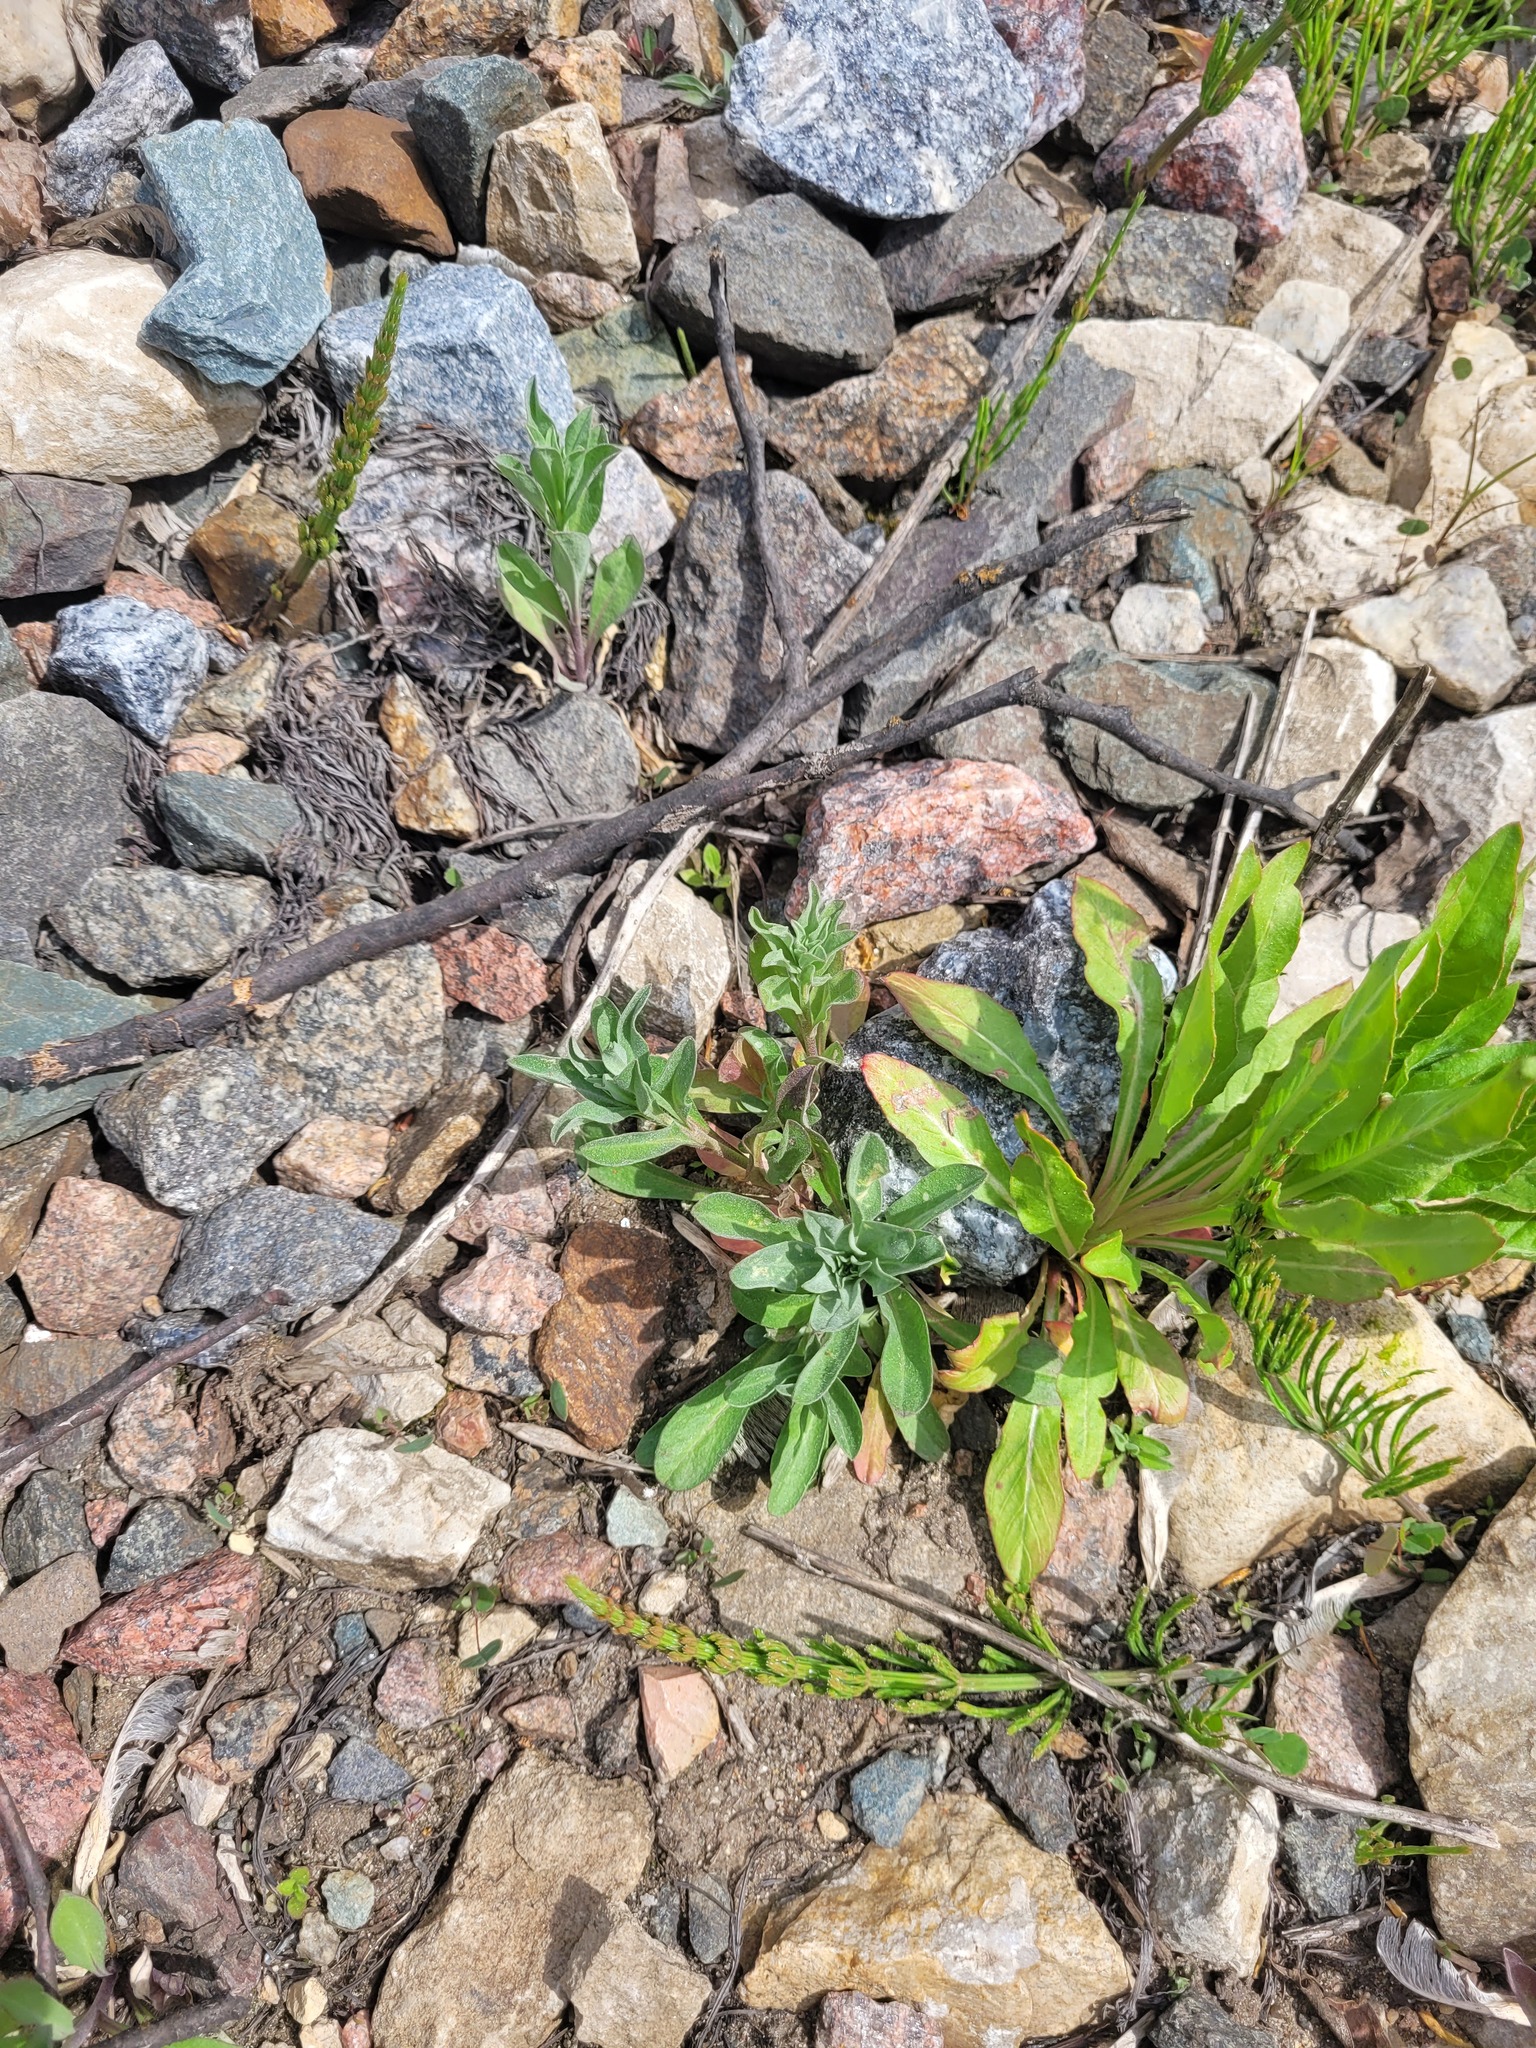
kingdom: Plantae
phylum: Tracheophyta
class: Magnoliopsida
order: Brassicales
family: Brassicaceae
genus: Berteroa
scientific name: Berteroa incana
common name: Hoary alison
